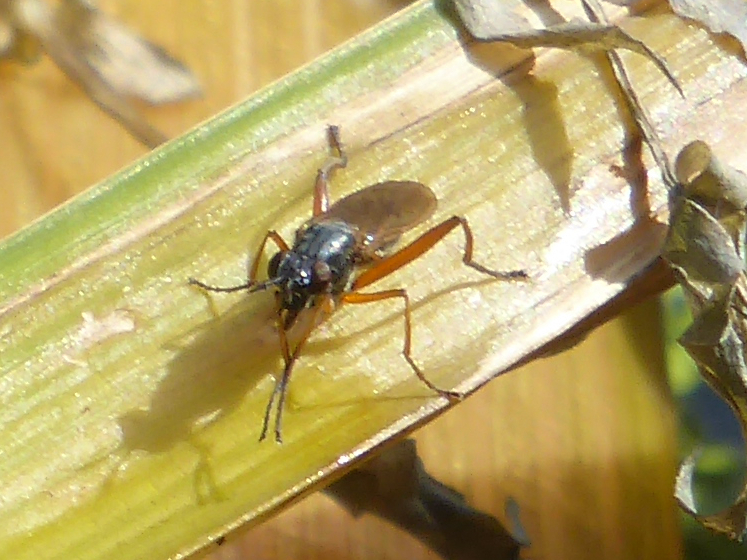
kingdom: Animalia
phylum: Arthropoda
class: Insecta
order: Diptera
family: Sciomyzidae
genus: Sepedon
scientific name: Sepedon sphegea
